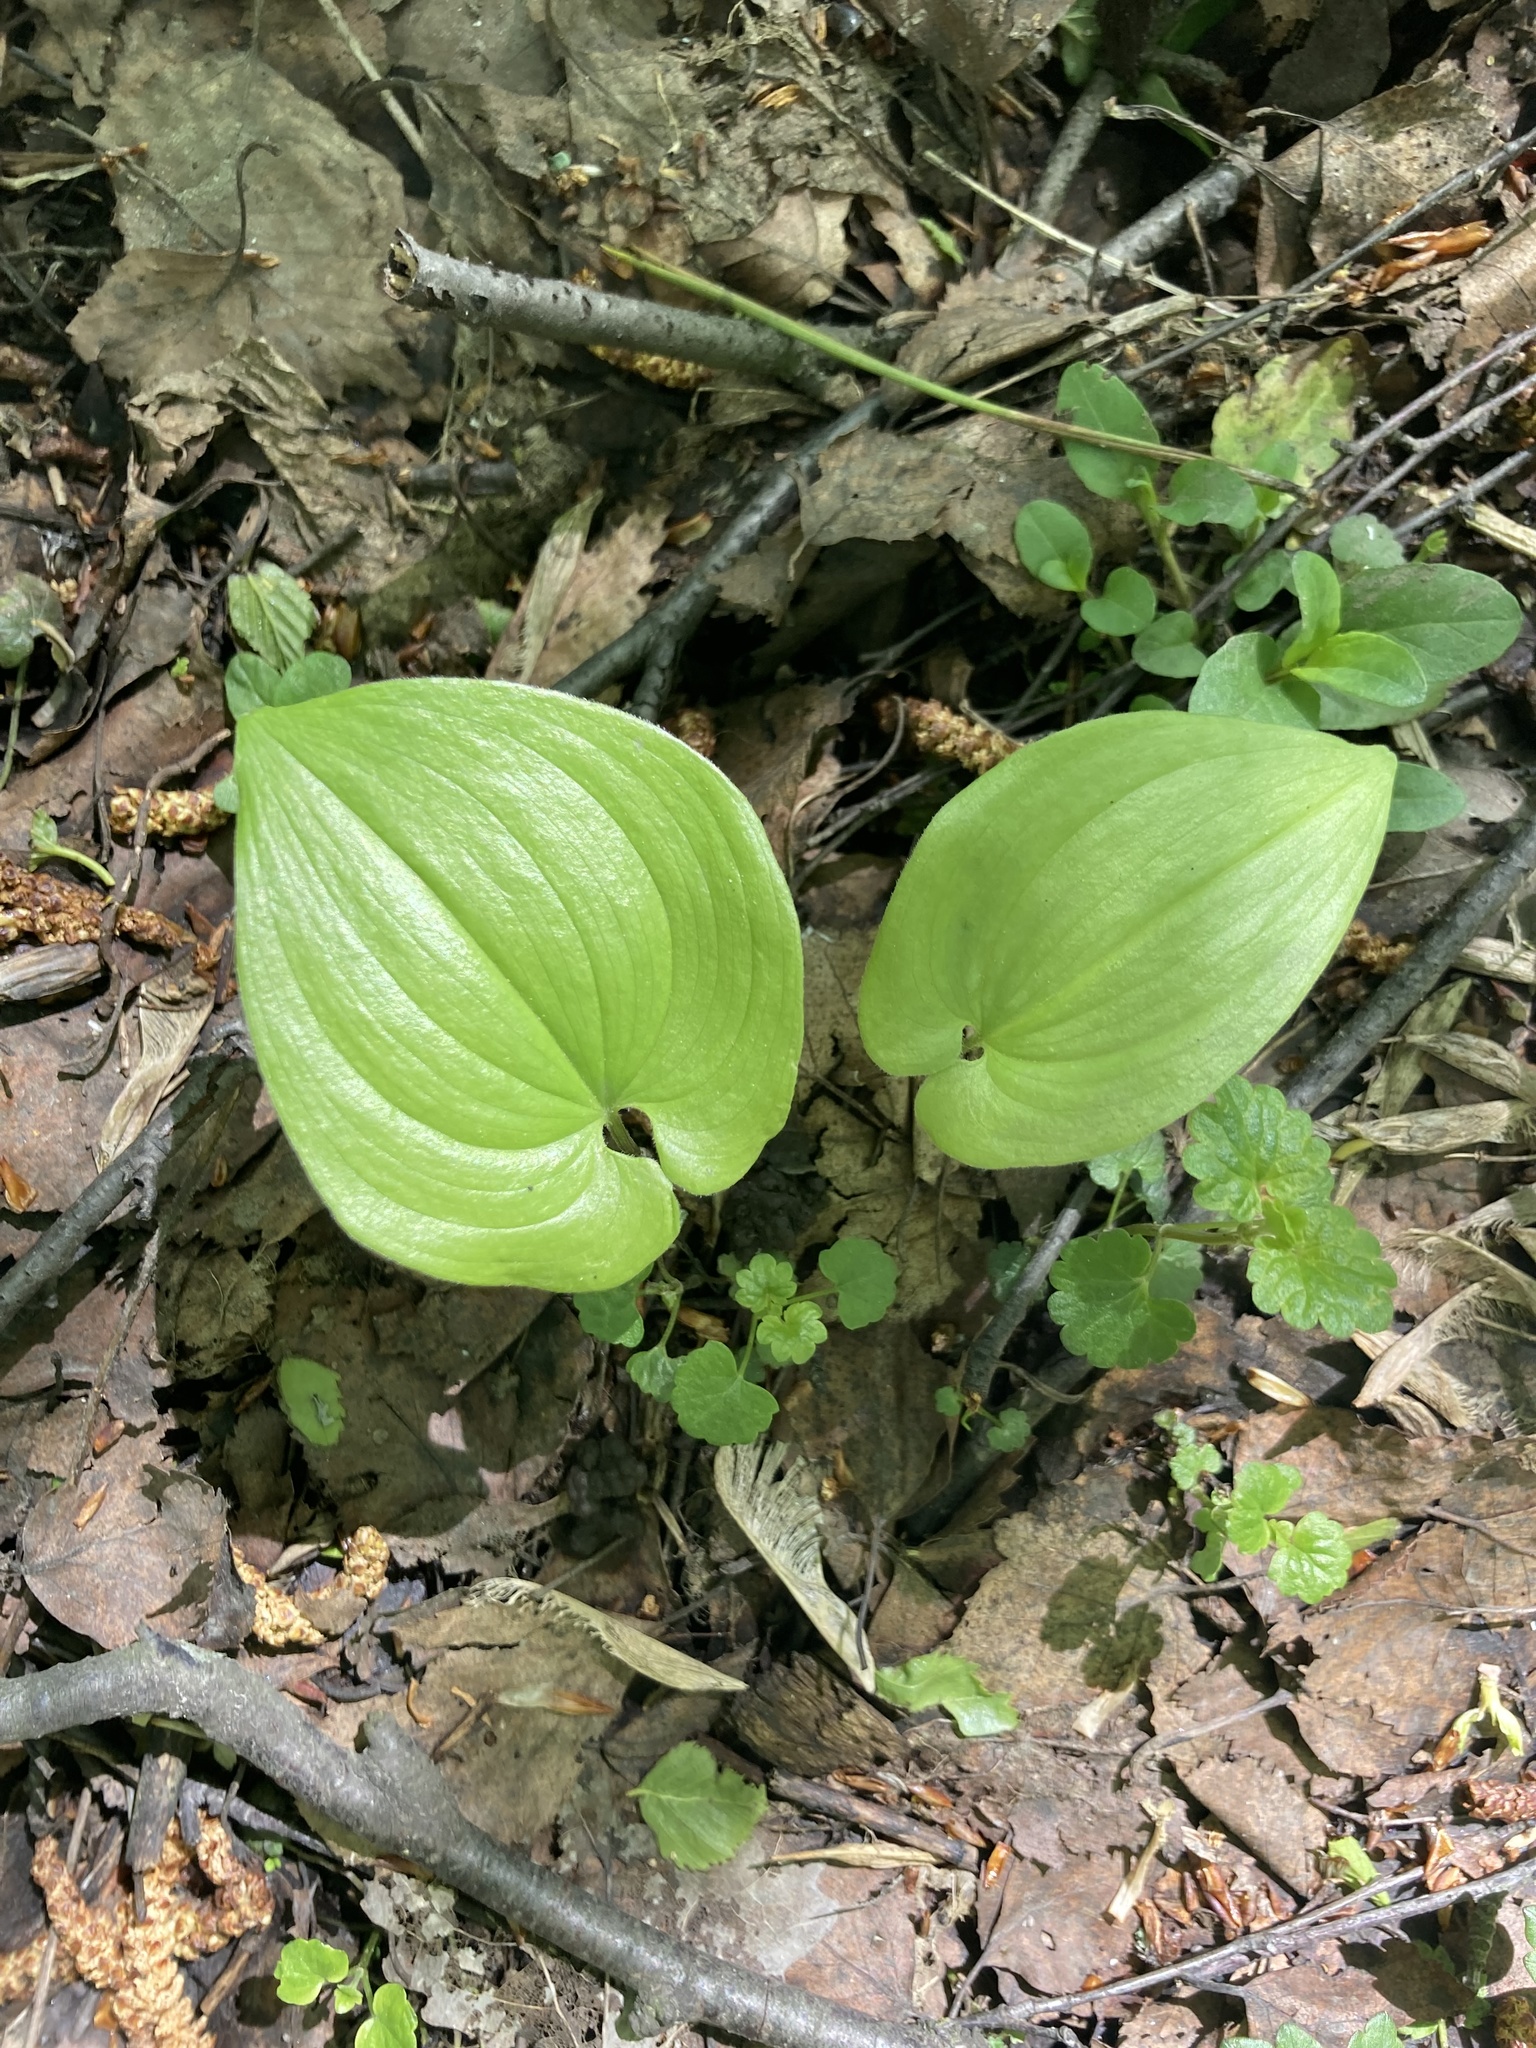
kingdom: Plantae
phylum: Tracheophyta
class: Liliopsida
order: Asparagales
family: Asparagaceae
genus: Maianthemum
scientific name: Maianthemum bifolium
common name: May lily
